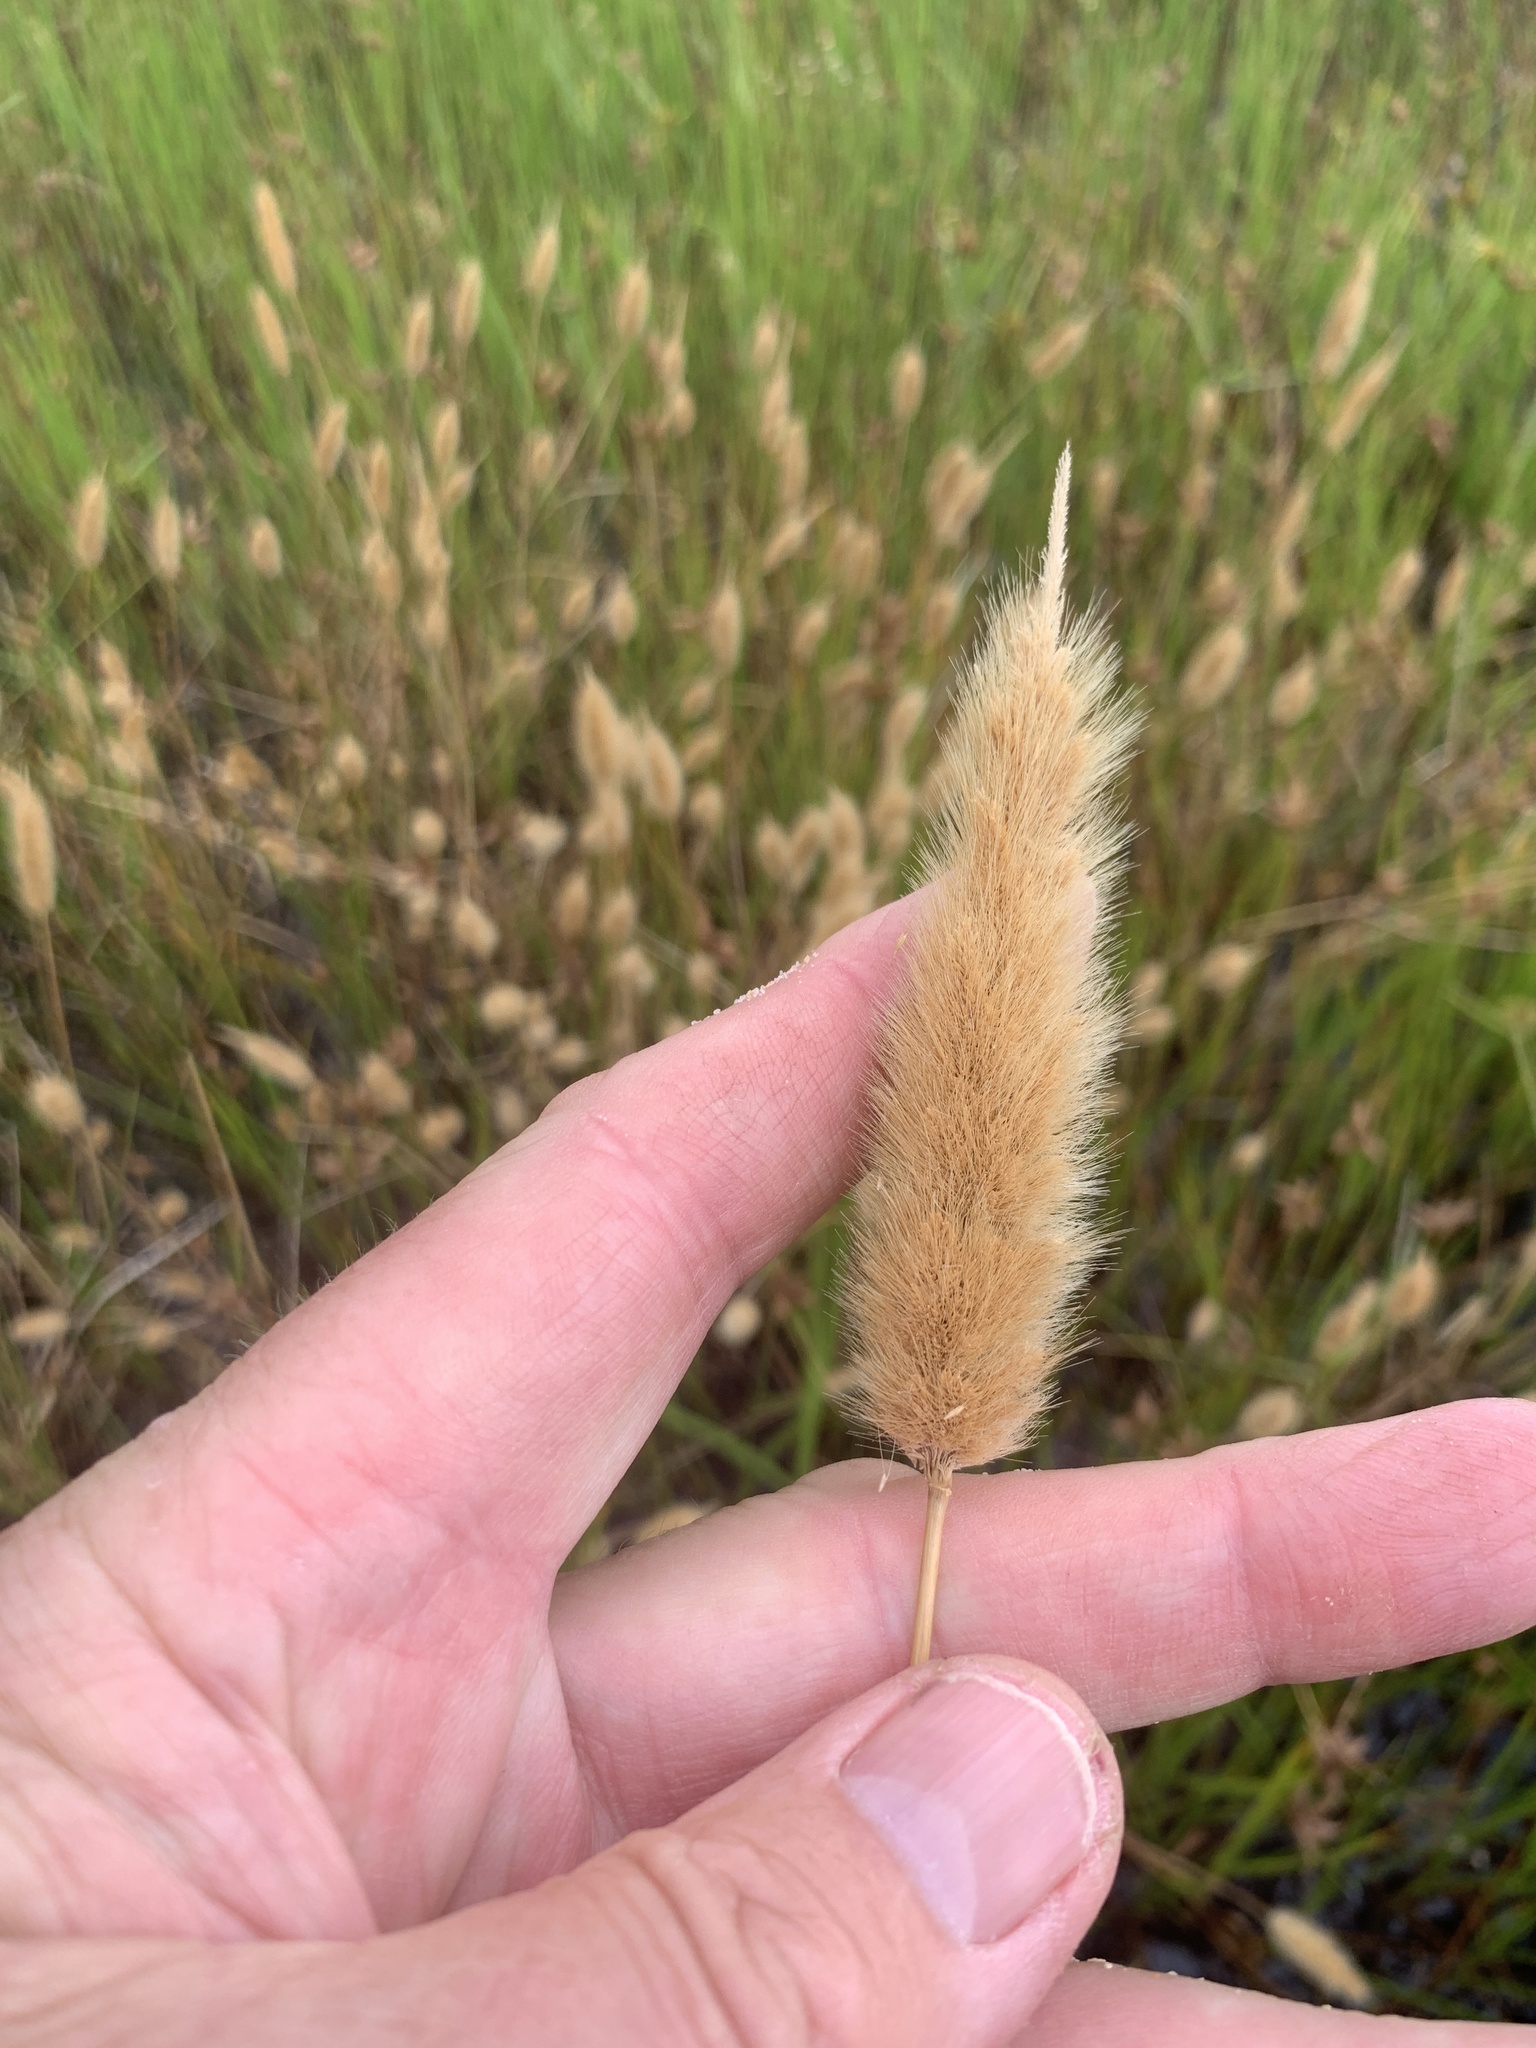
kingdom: Plantae
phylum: Tracheophyta
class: Liliopsida
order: Poales
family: Poaceae
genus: Polypogon
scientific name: Polypogon monspeliensis
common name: Annual rabbitsfoot grass
